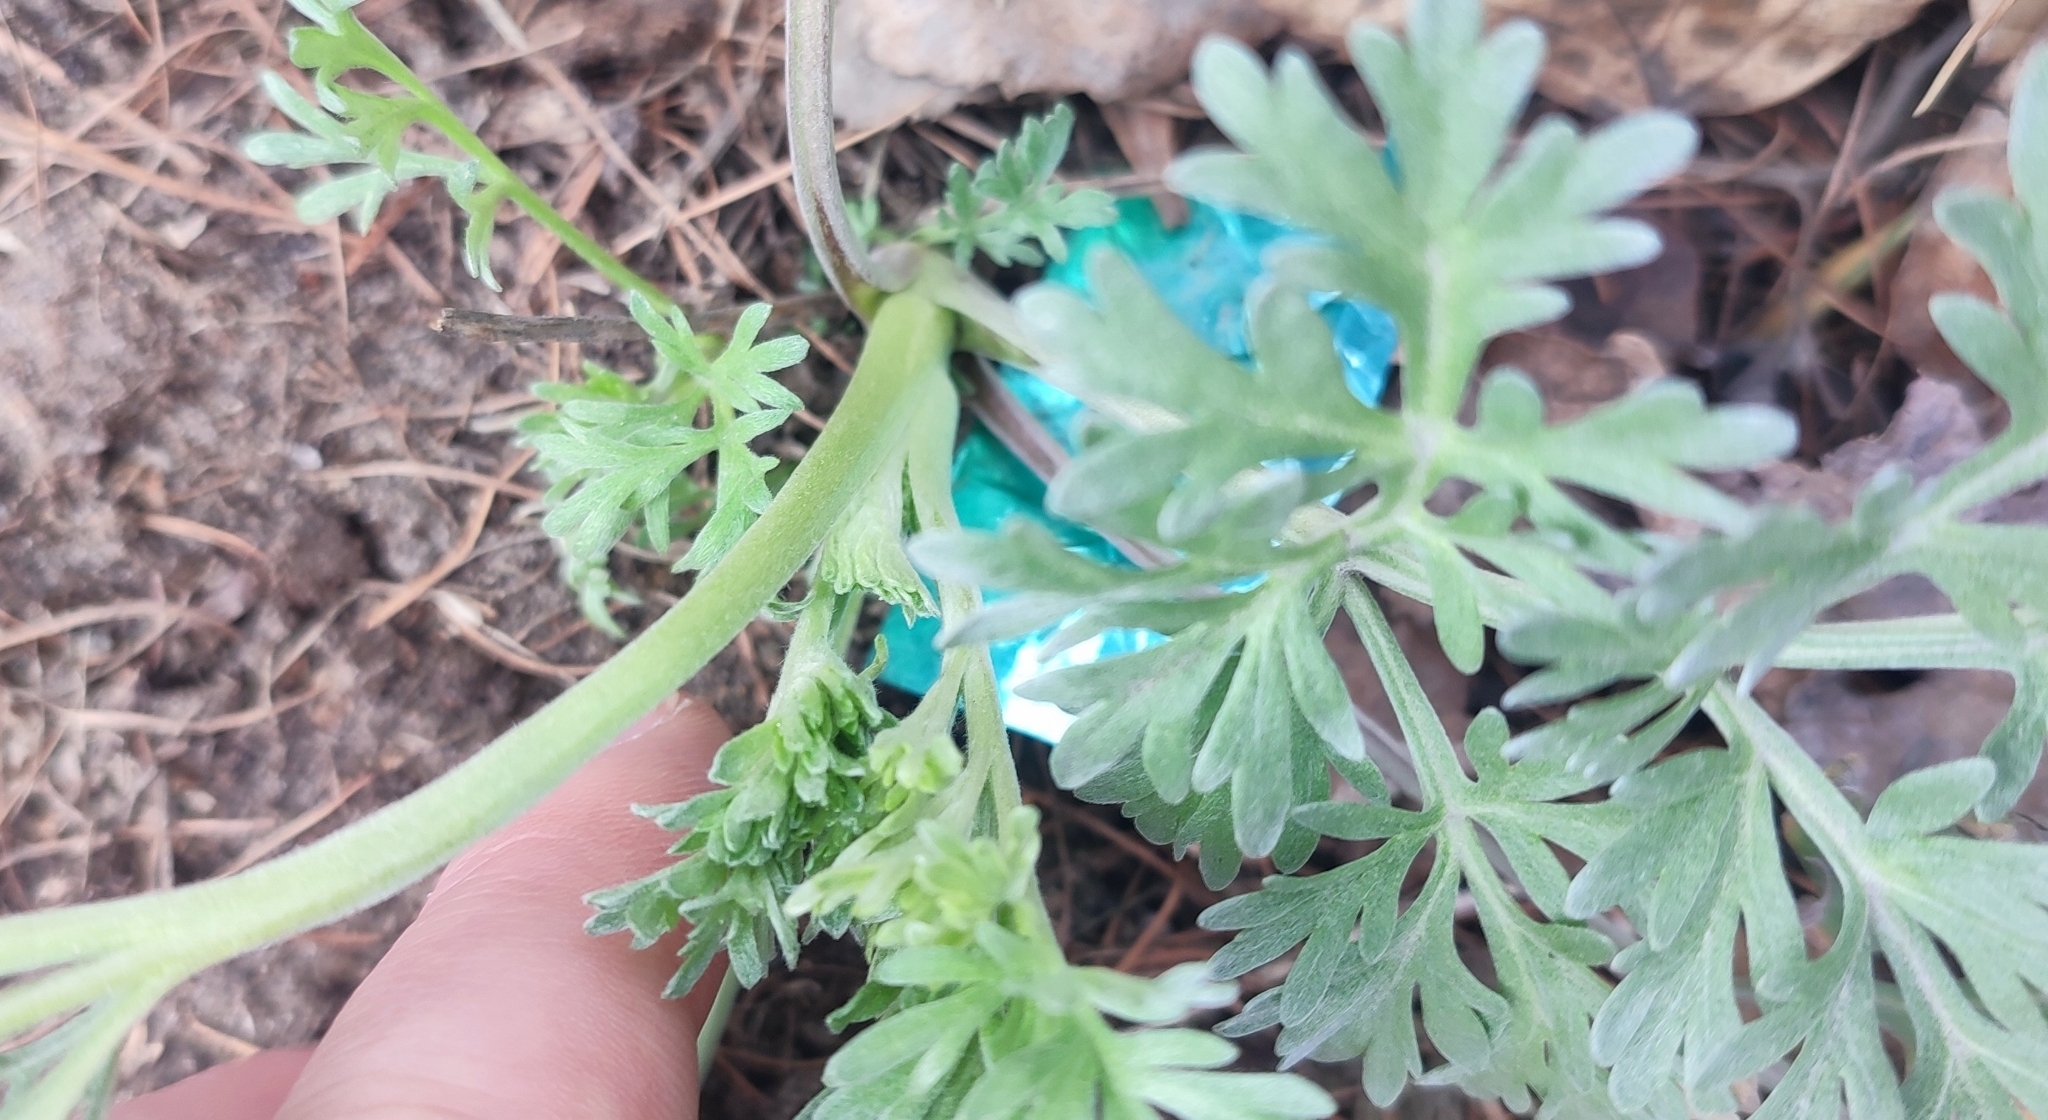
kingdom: Plantae
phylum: Tracheophyta
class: Magnoliopsida
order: Asterales
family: Asteraceae
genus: Artemisia
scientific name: Artemisia absinthium
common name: Wormwood
